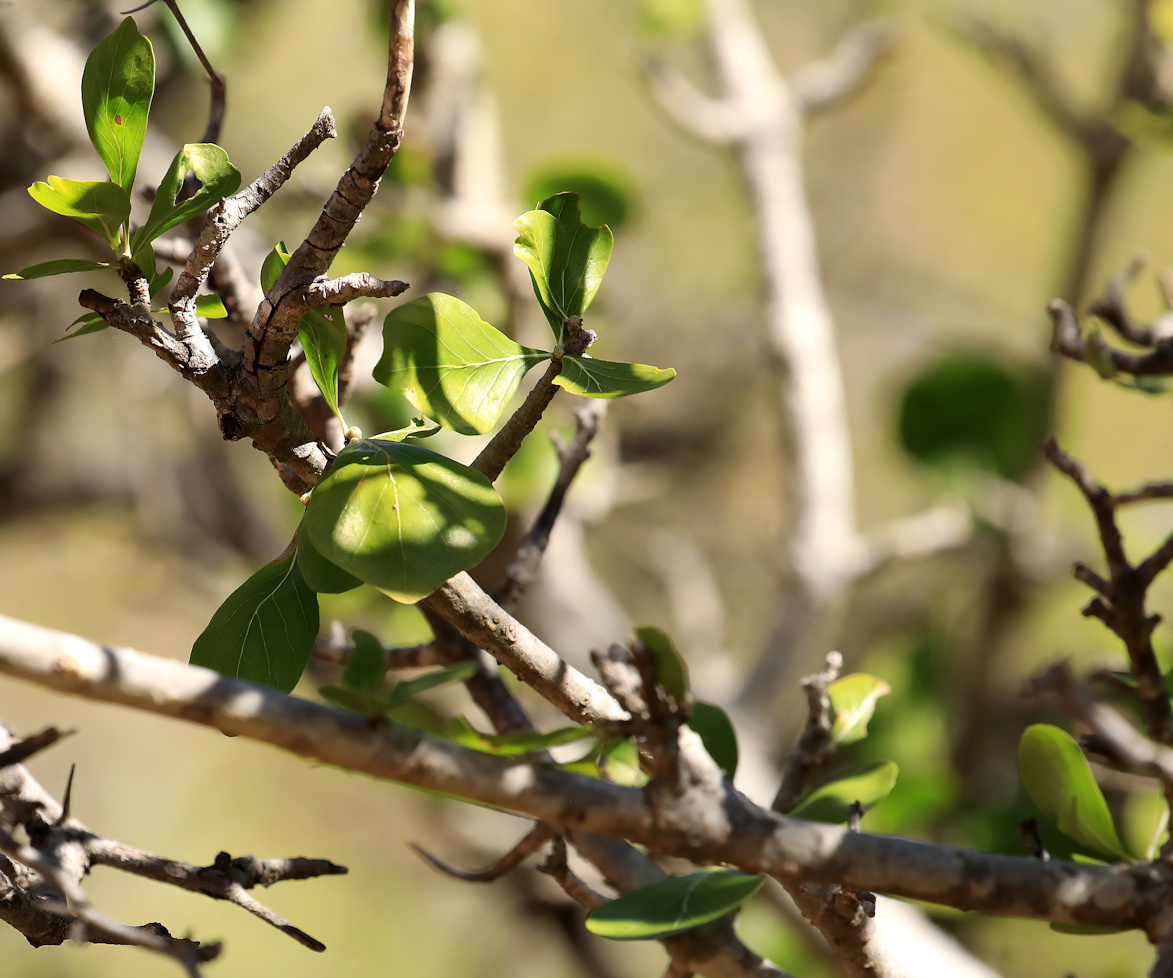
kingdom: Plantae
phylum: Tracheophyta
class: Magnoliopsida
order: Gentianales
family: Rubiaceae
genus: Gardenia
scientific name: Gardenia volkensii
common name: Common gardenia
